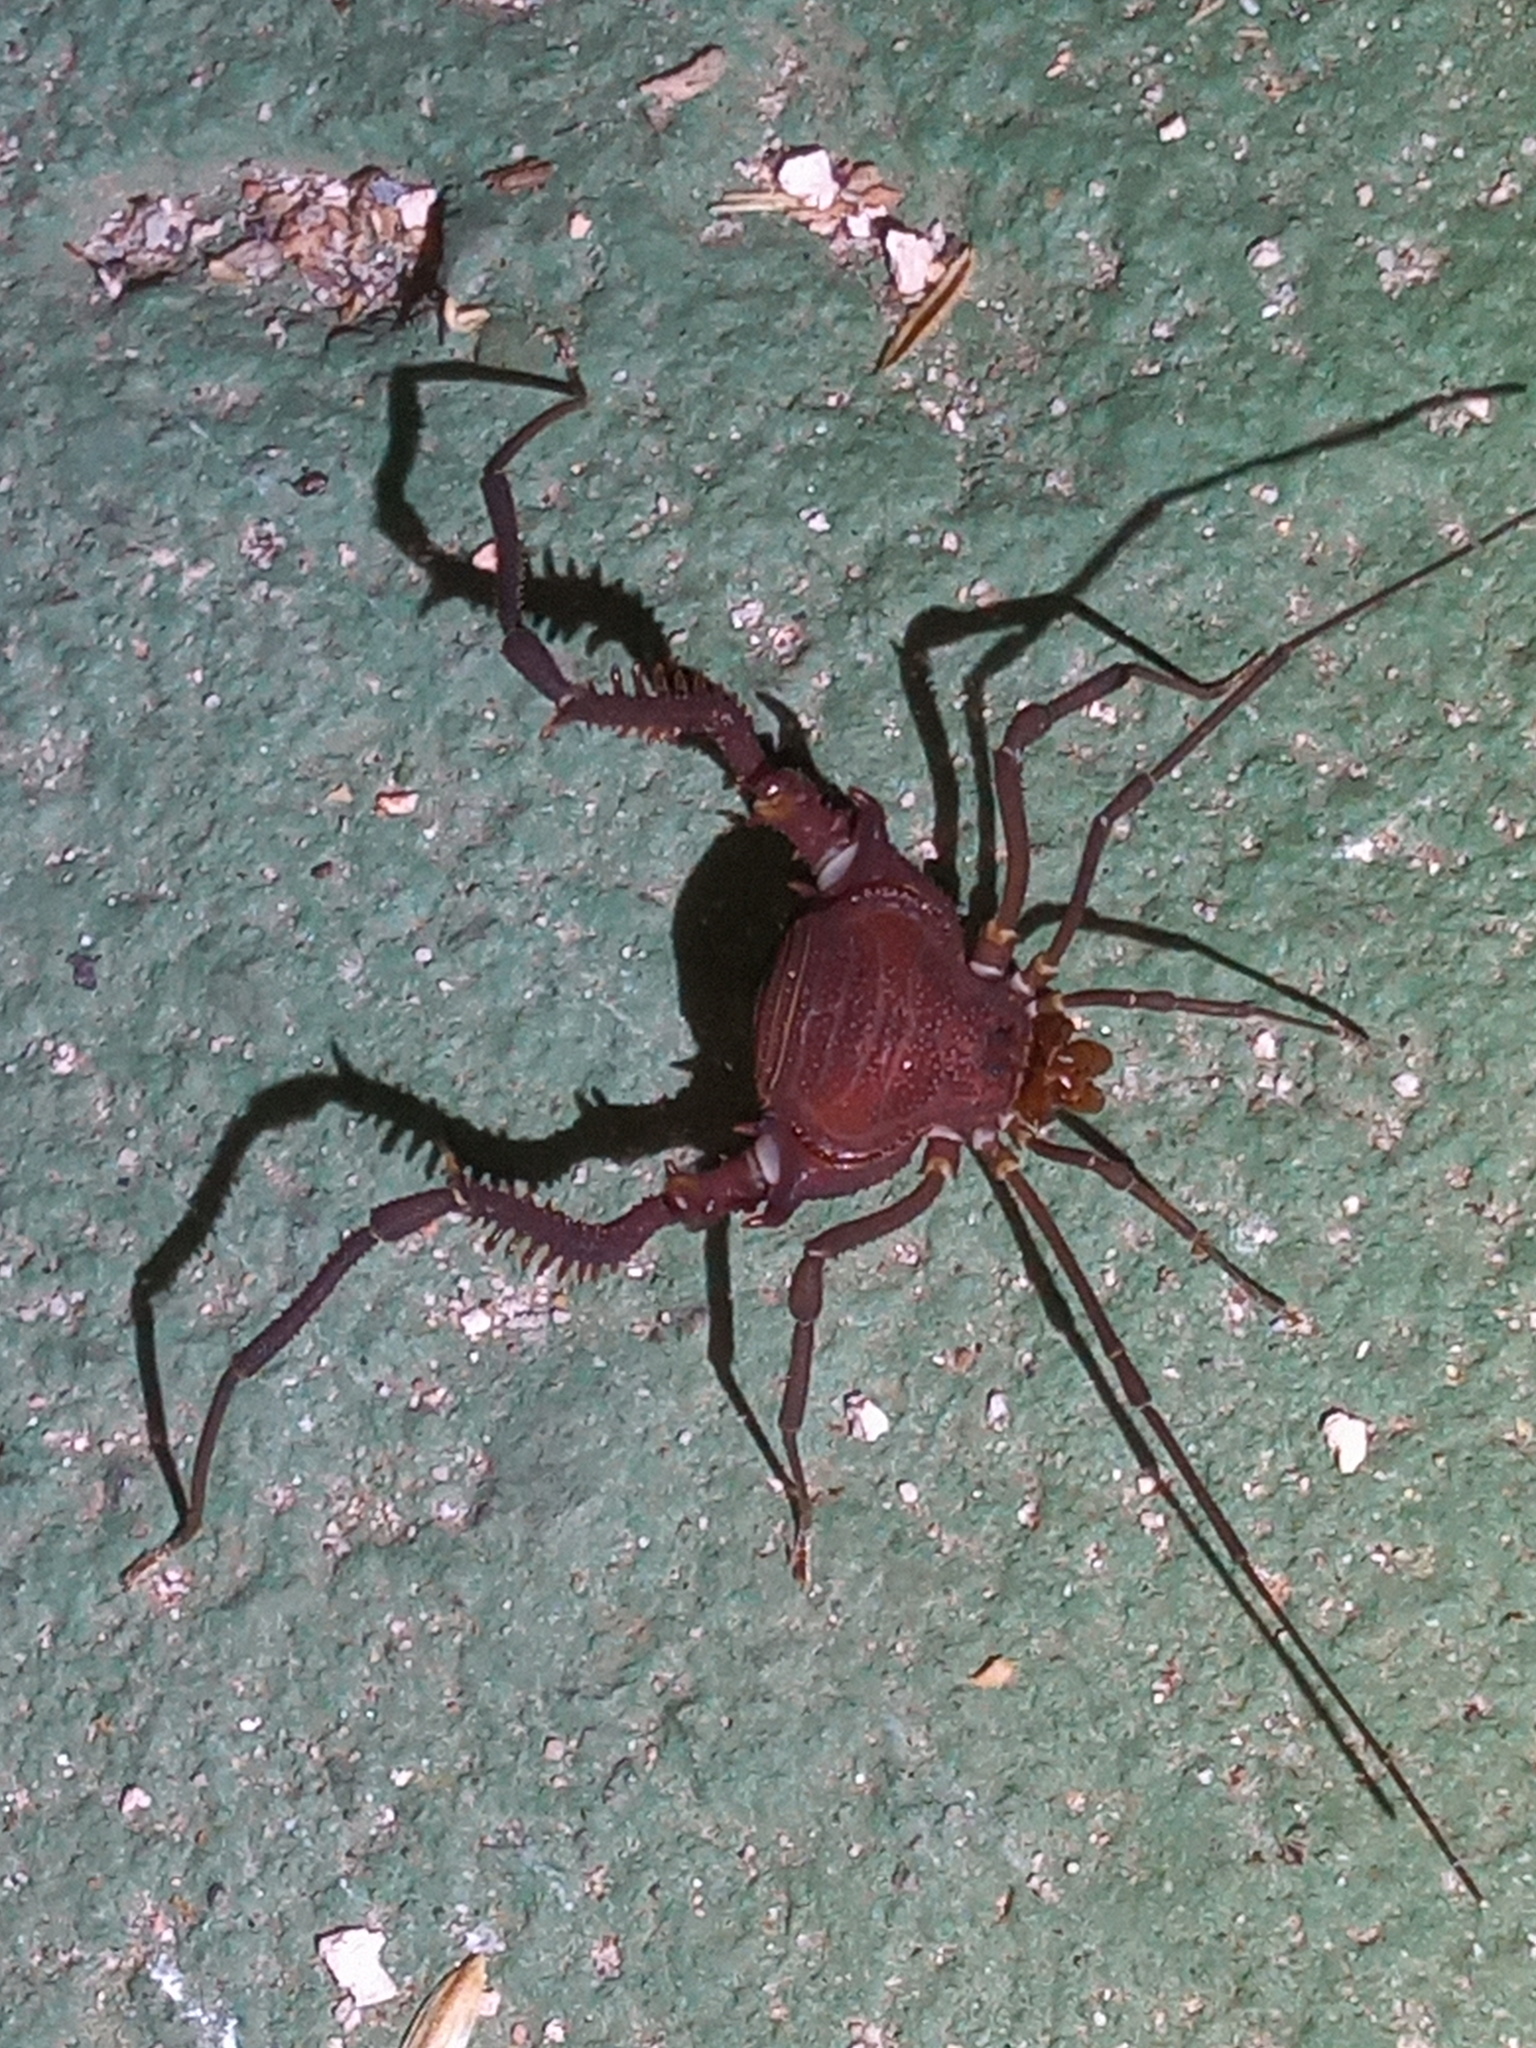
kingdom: Animalia
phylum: Arthropoda
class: Arachnida
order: Opiliones
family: Gonyleptidae
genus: Discocyrtanus
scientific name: Discocyrtanus oliverioi
